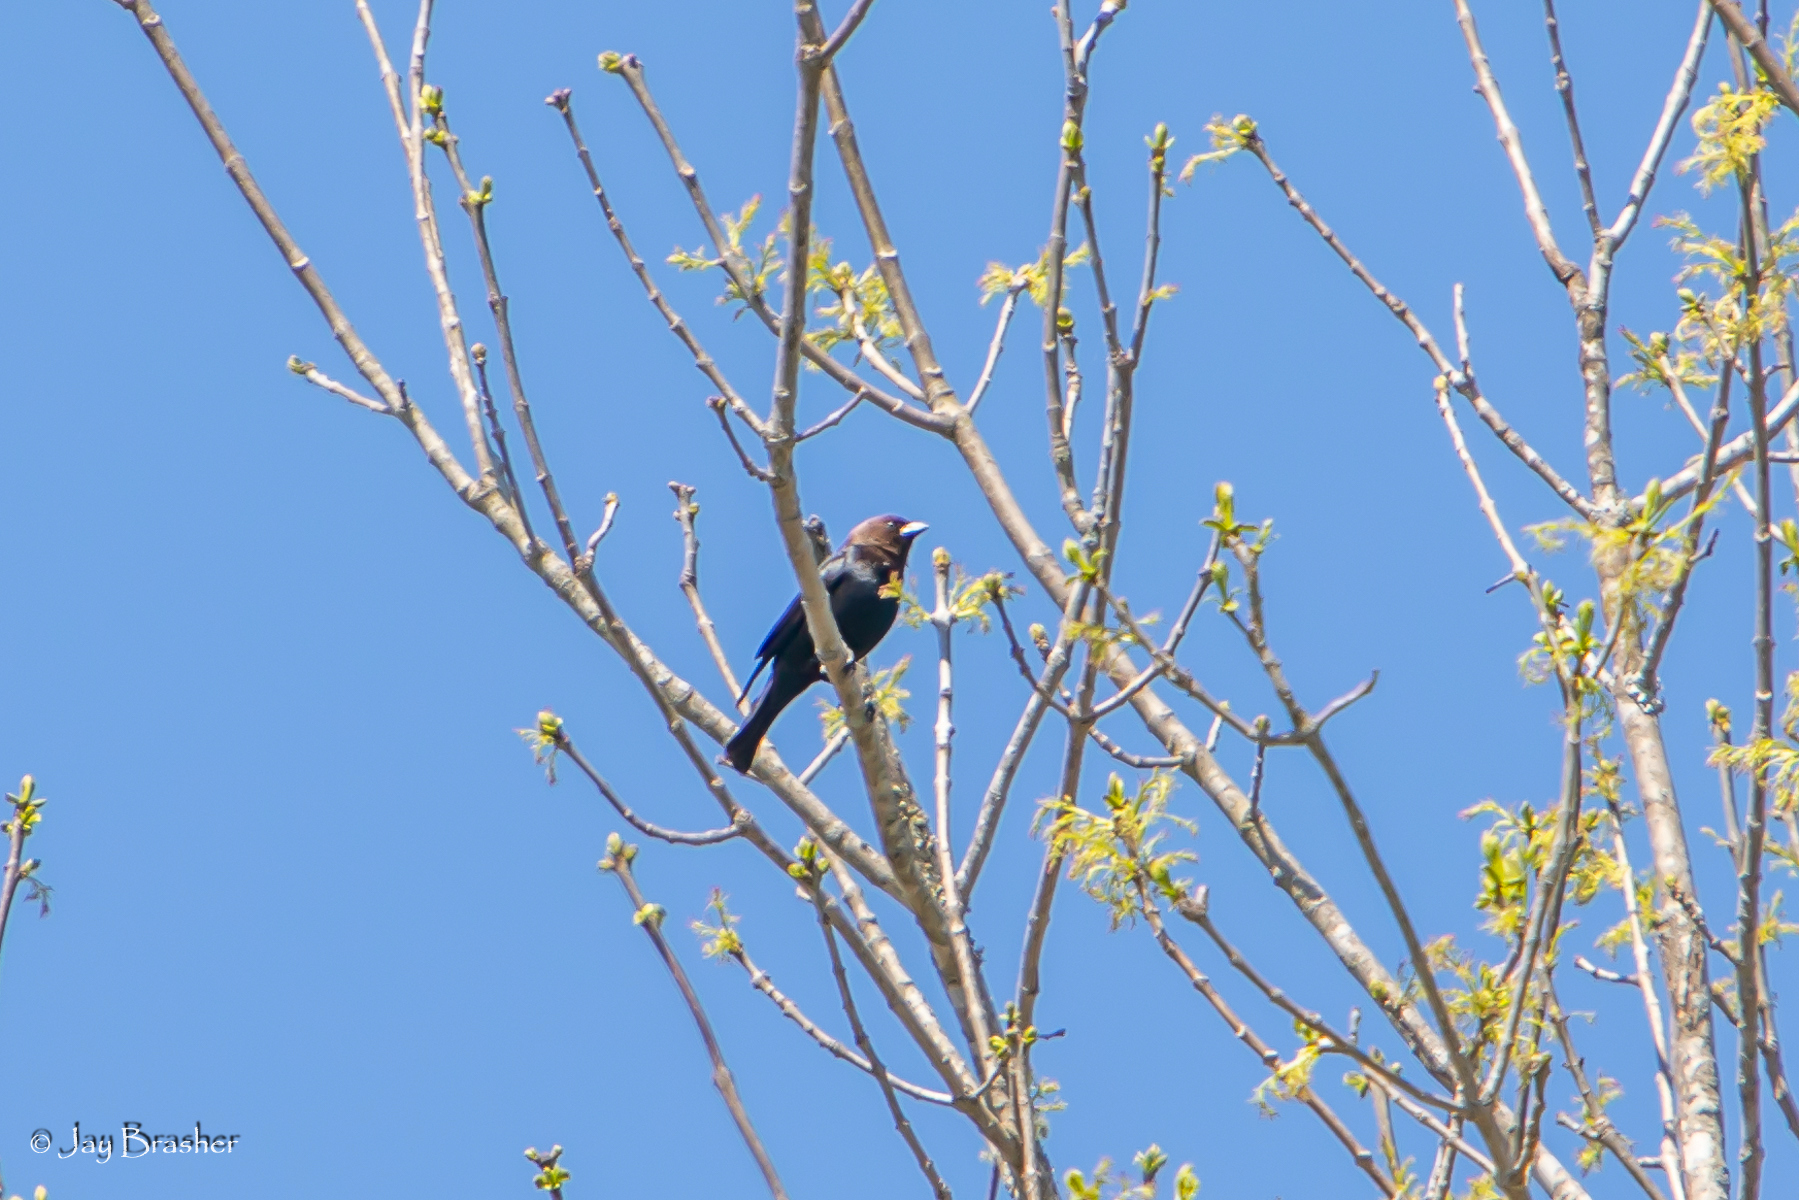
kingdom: Animalia
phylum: Chordata
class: Aves
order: Passeriformes
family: Icteridae
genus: Molothrus
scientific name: Molothrus ater
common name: Brown-headed cowbird
